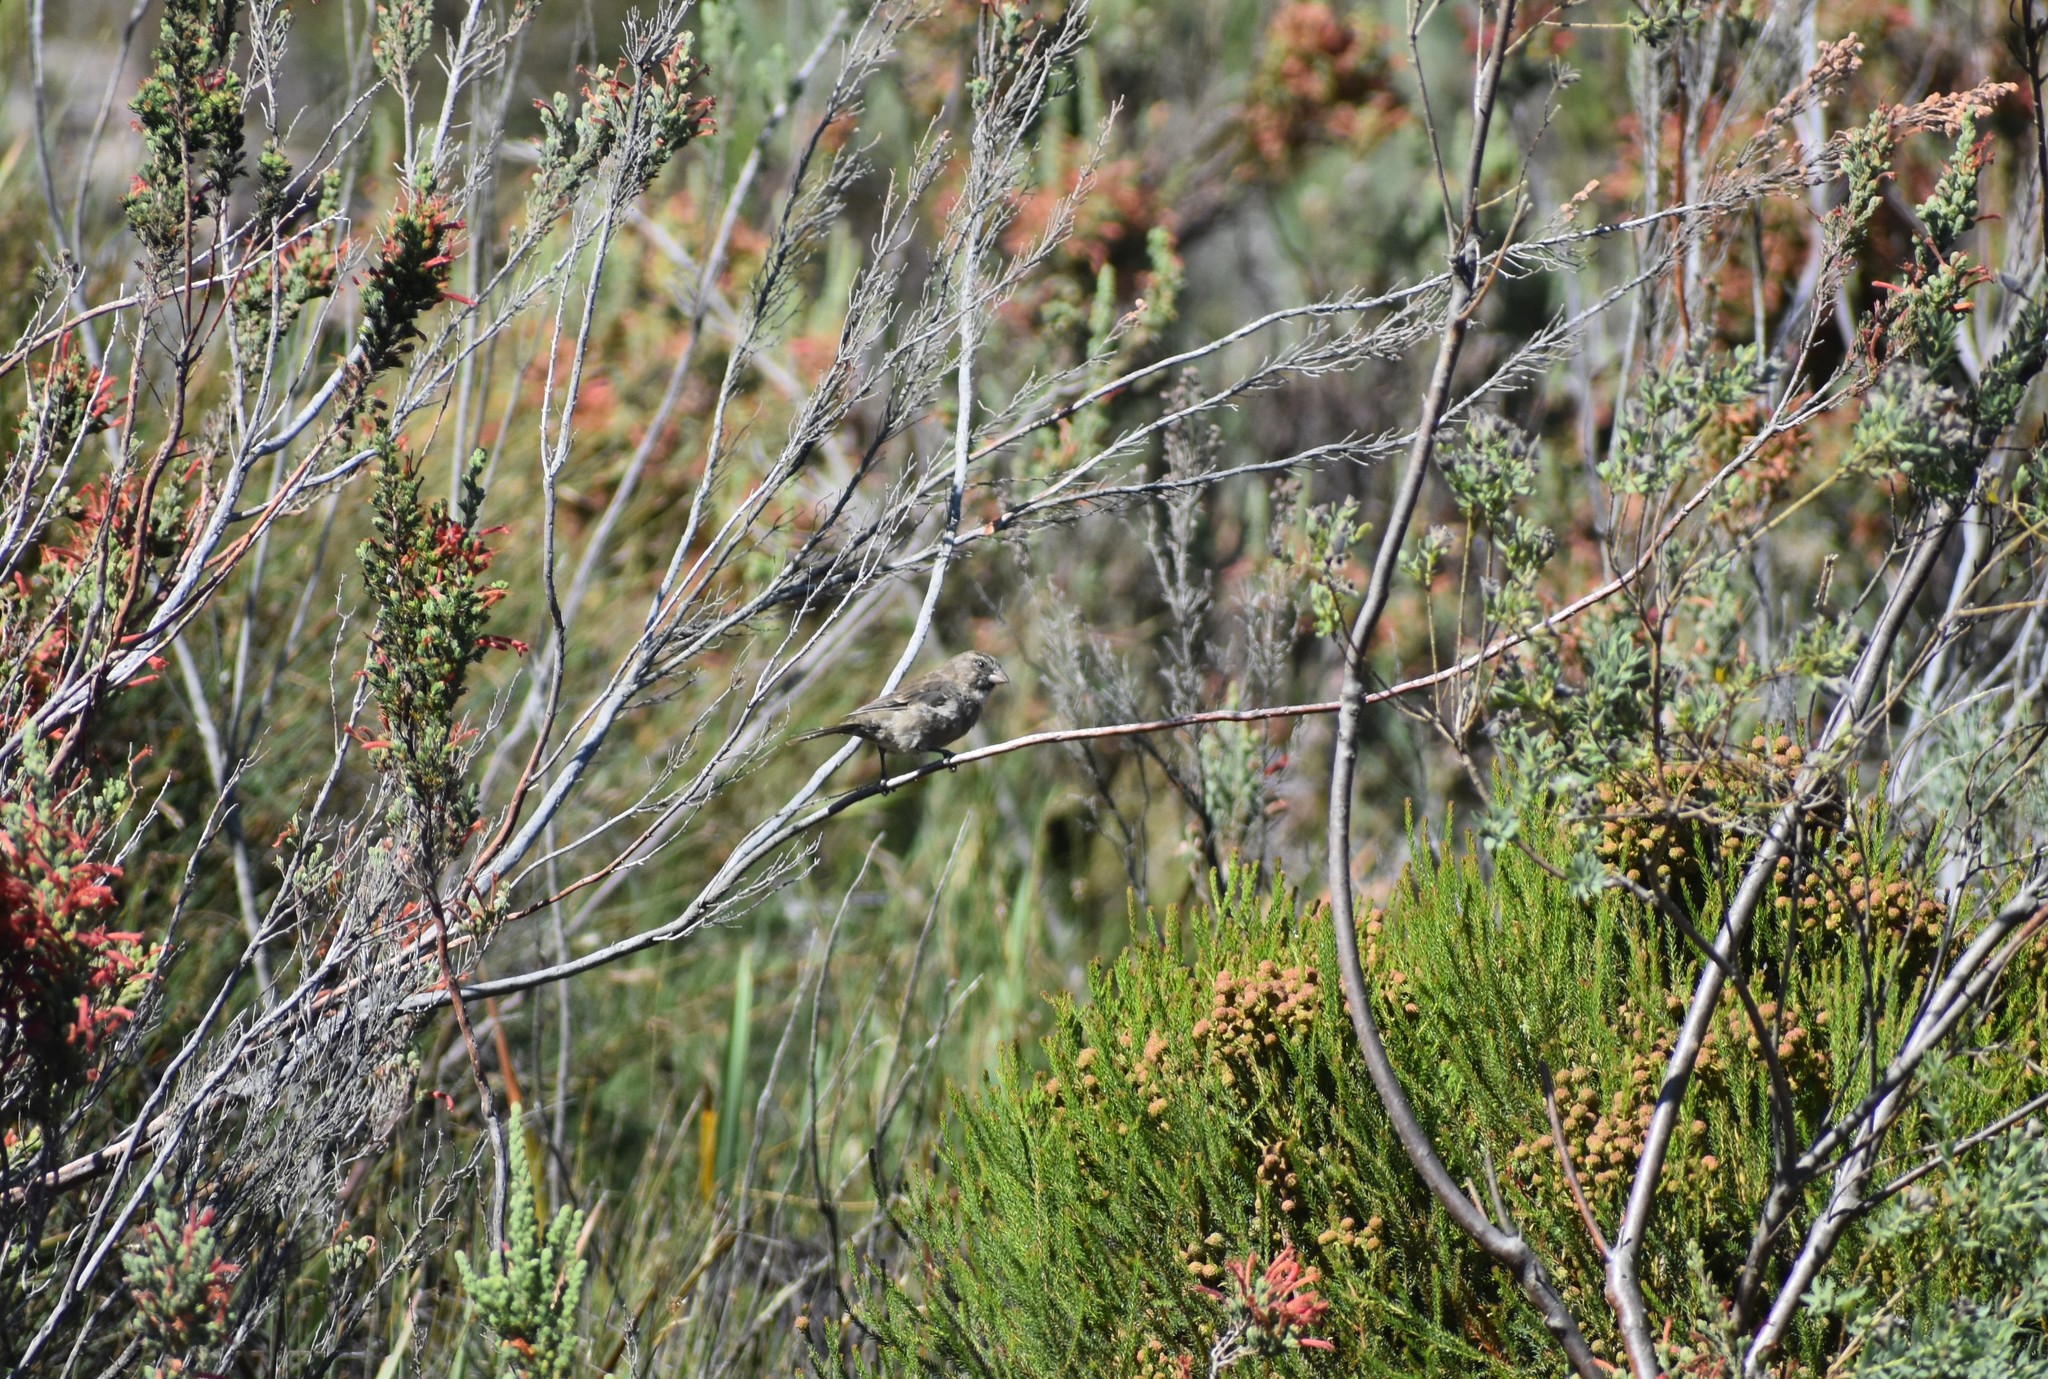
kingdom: Animalia
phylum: Chordata
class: Aves
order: Passeriformes
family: Fringillidae
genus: Crithagra
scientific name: Crithagra leucoptera
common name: Protea canary
